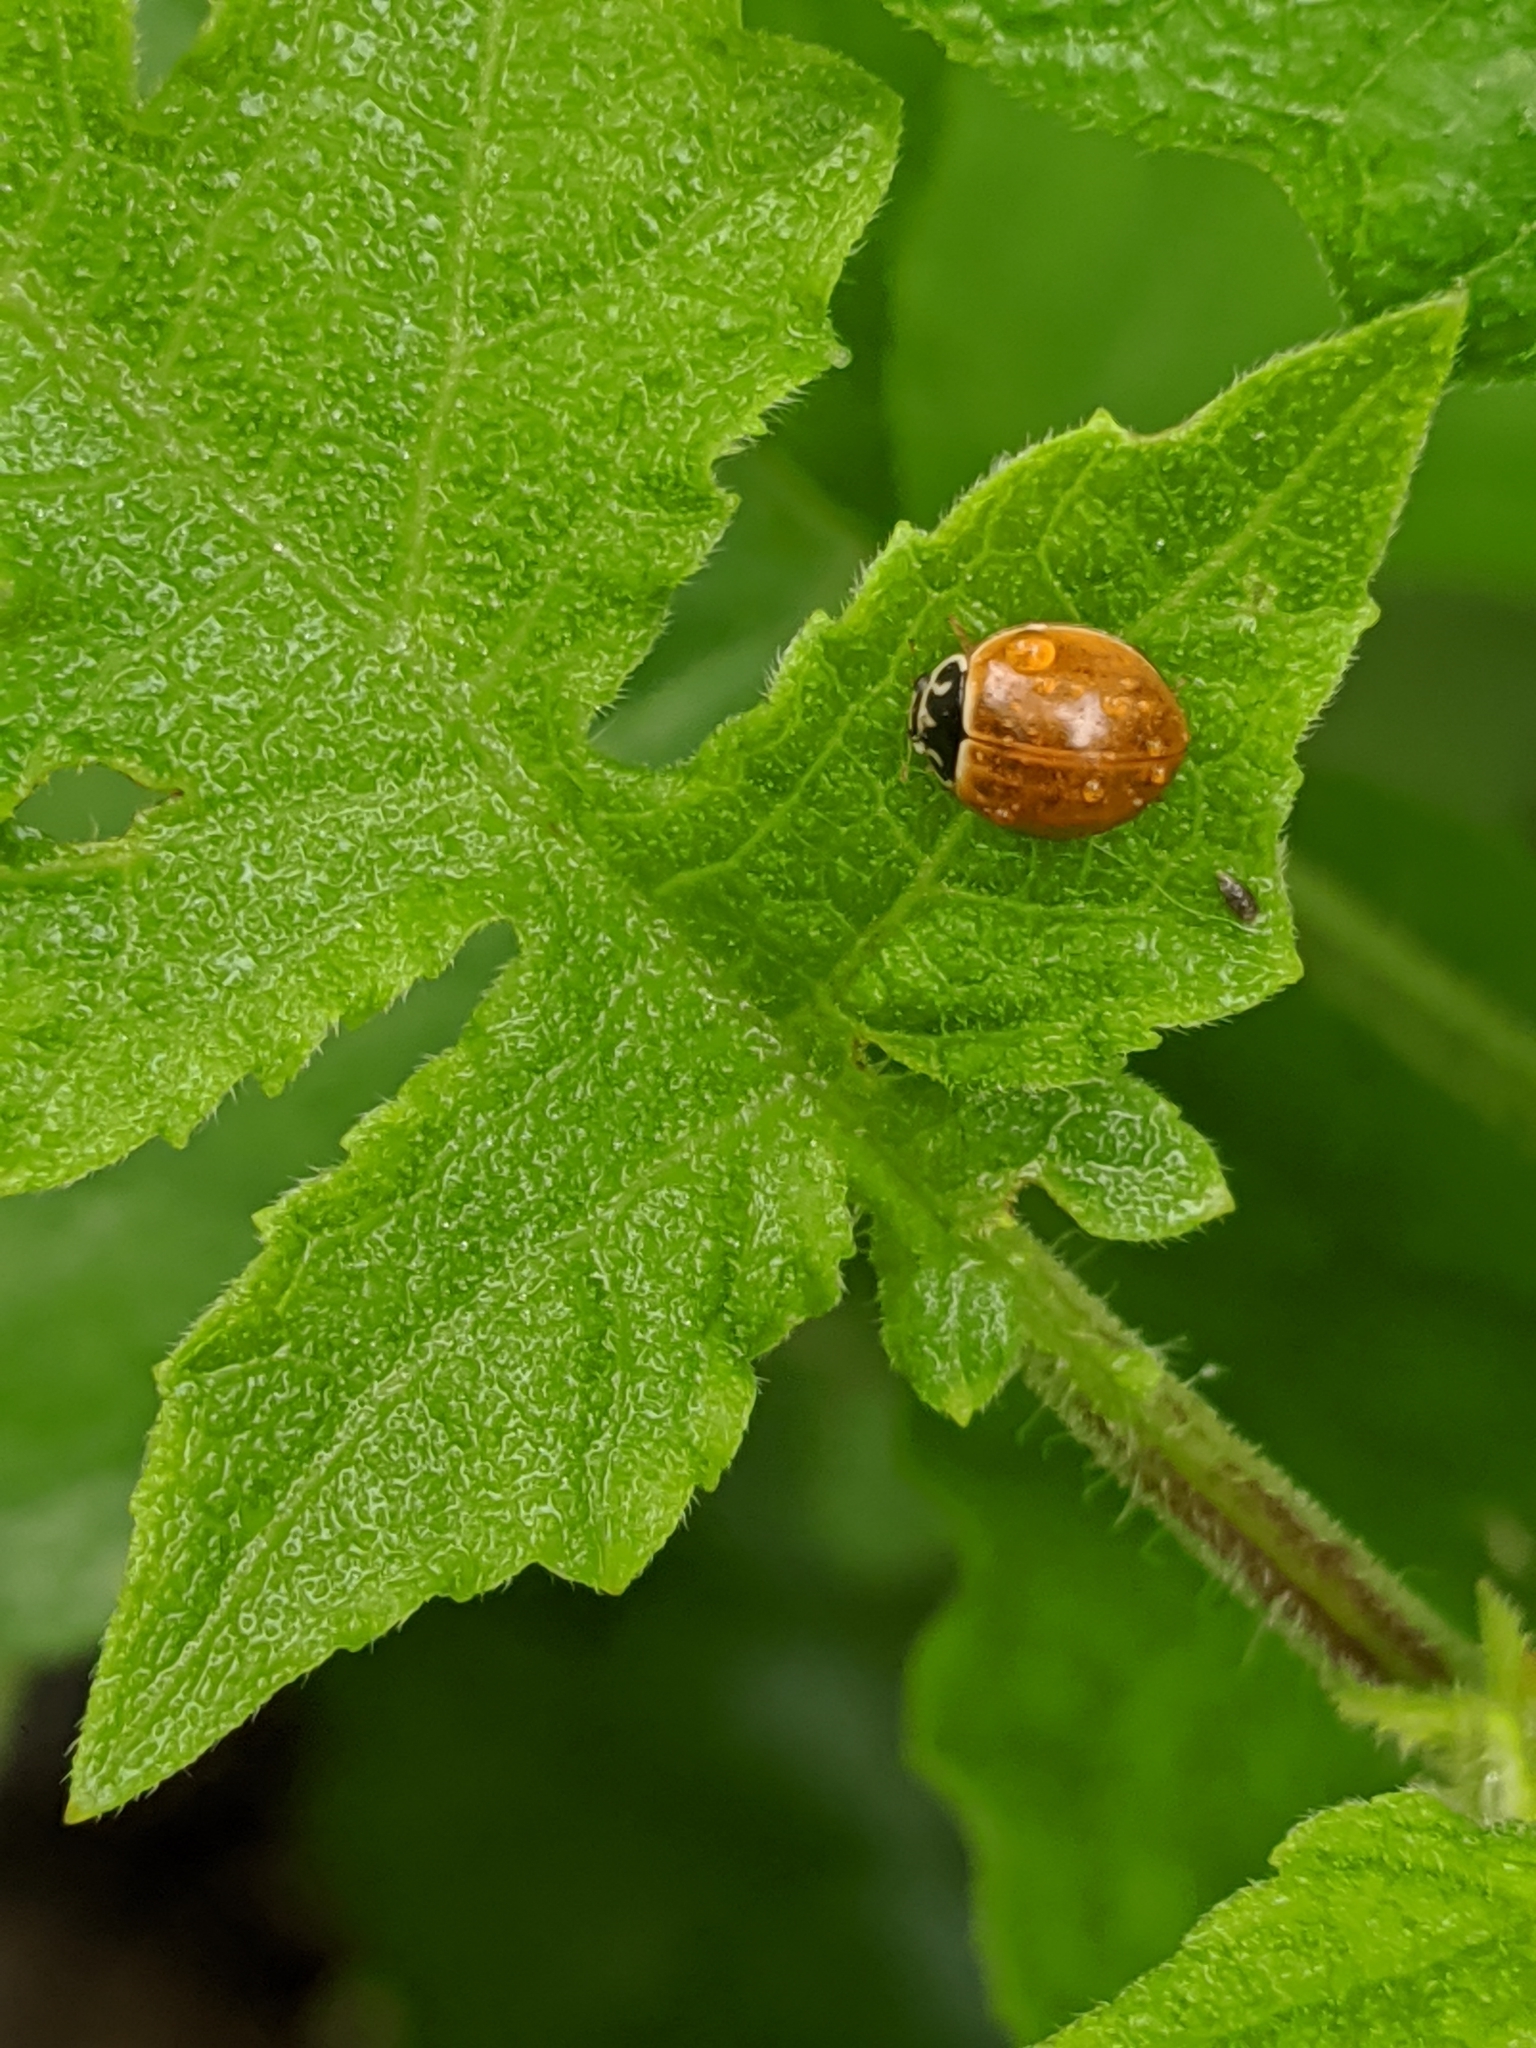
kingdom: Animalia
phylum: Arthropoda
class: Insecta
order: Coleoptera
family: Coccinellidae
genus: Cycloneda
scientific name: Cycloneda munda
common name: Polished lady beetle
